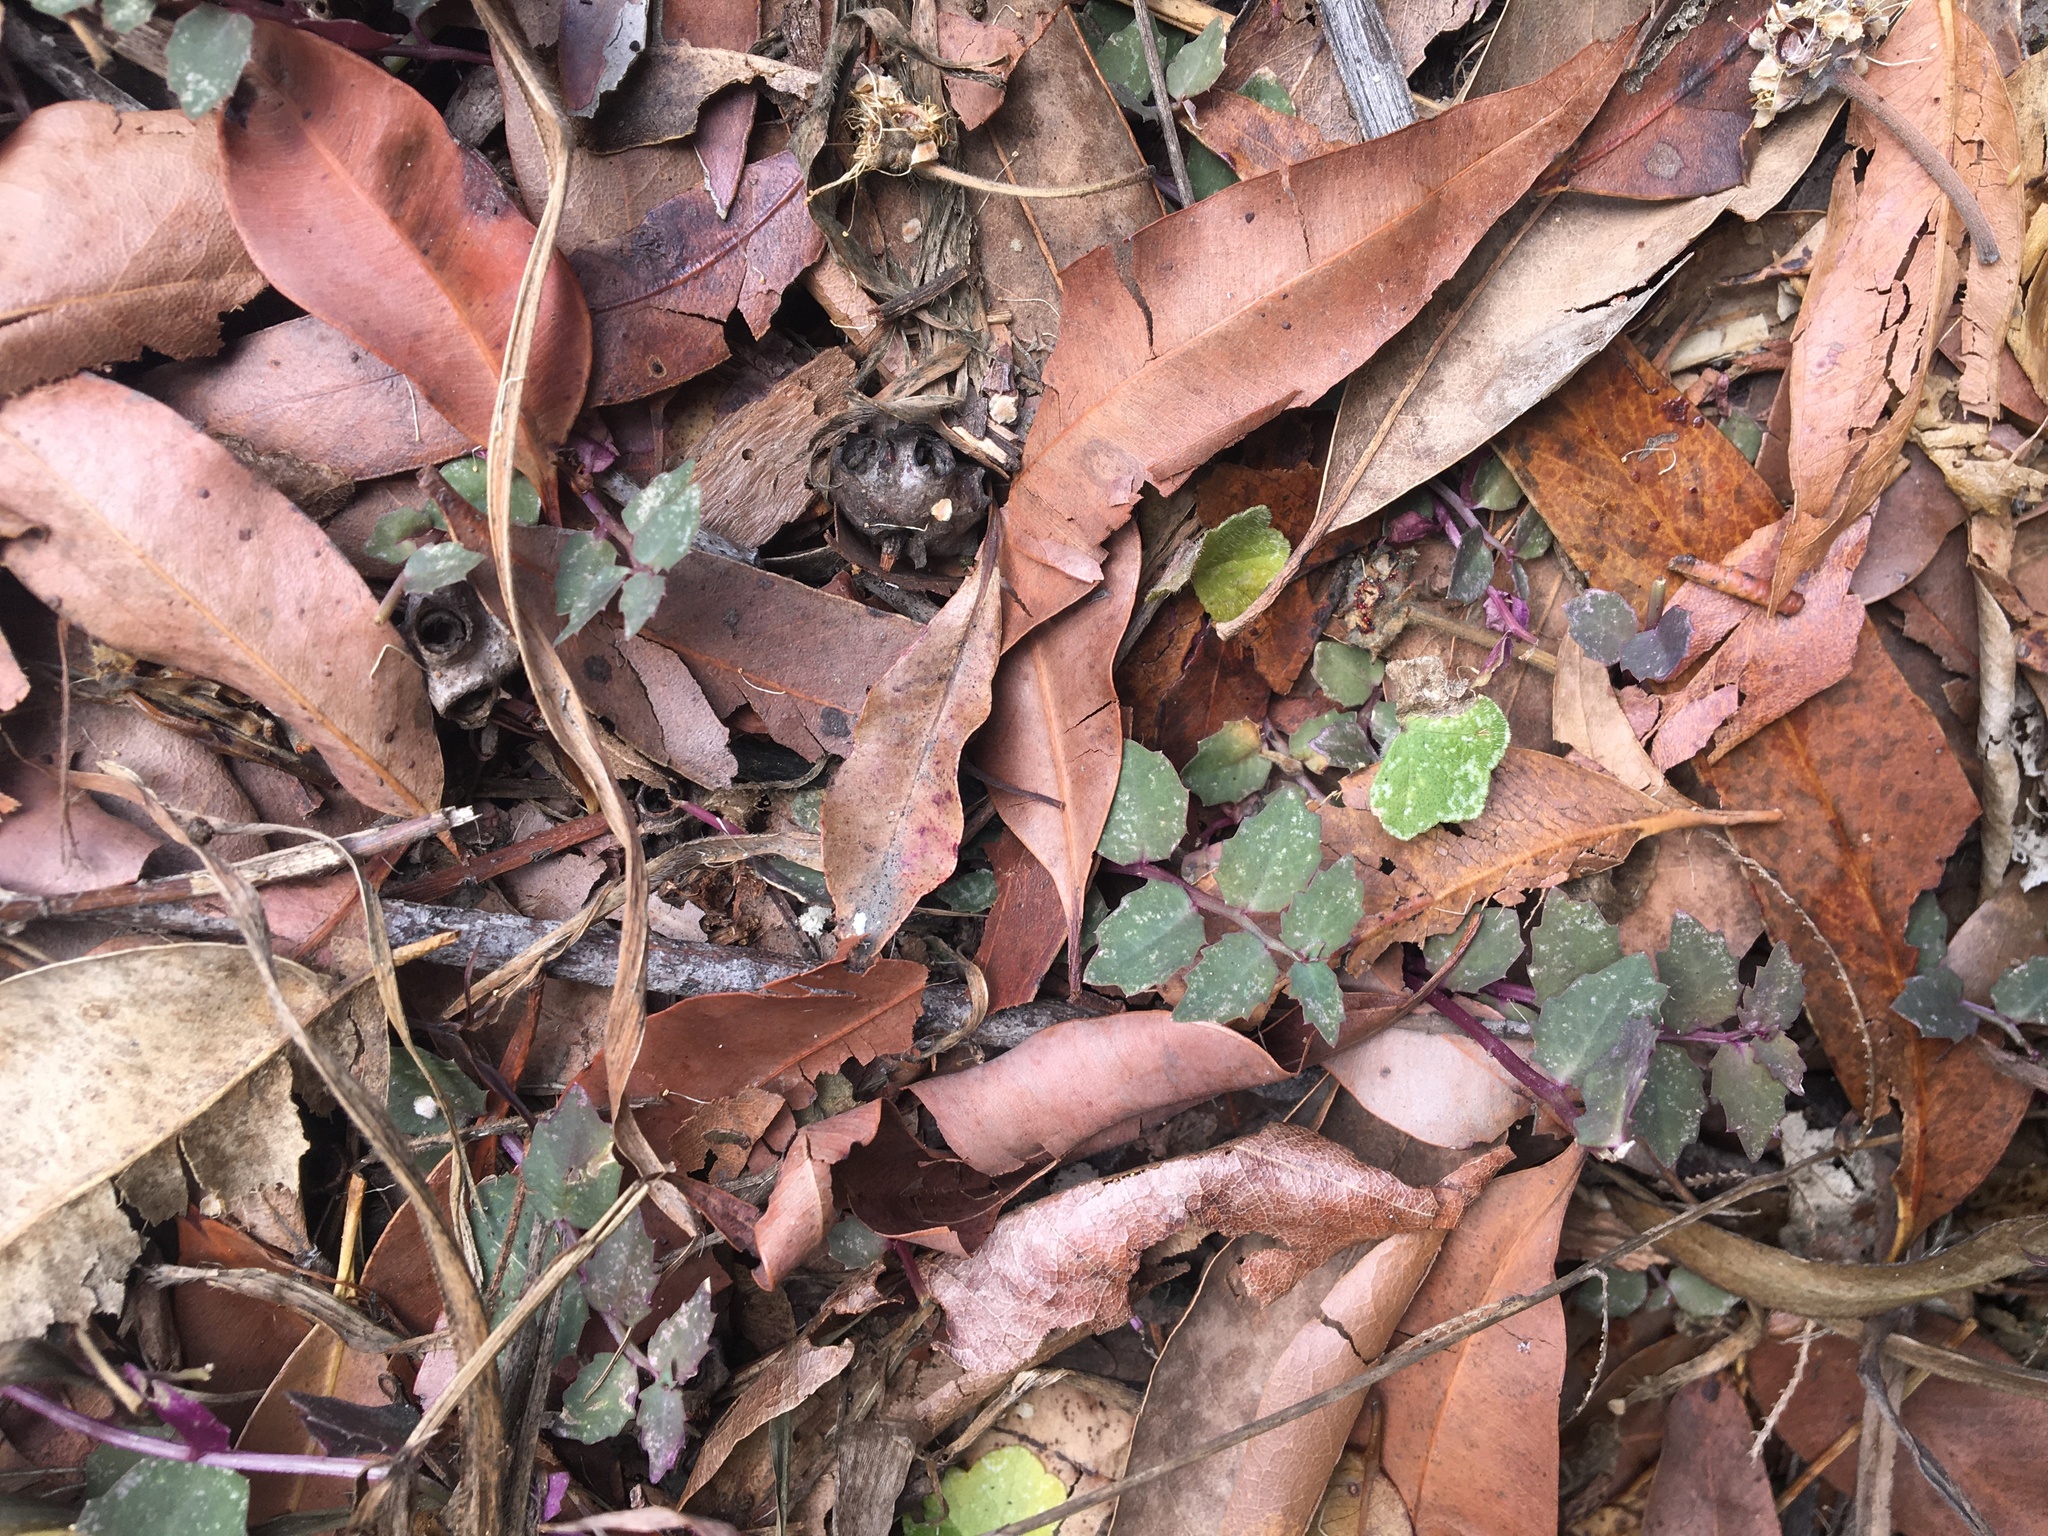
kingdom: Plantae
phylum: Tracheophyta
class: Magnoliopsida
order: Asterales
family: Campanulaceae
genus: Lobelia
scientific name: Lobelia purpurascens
